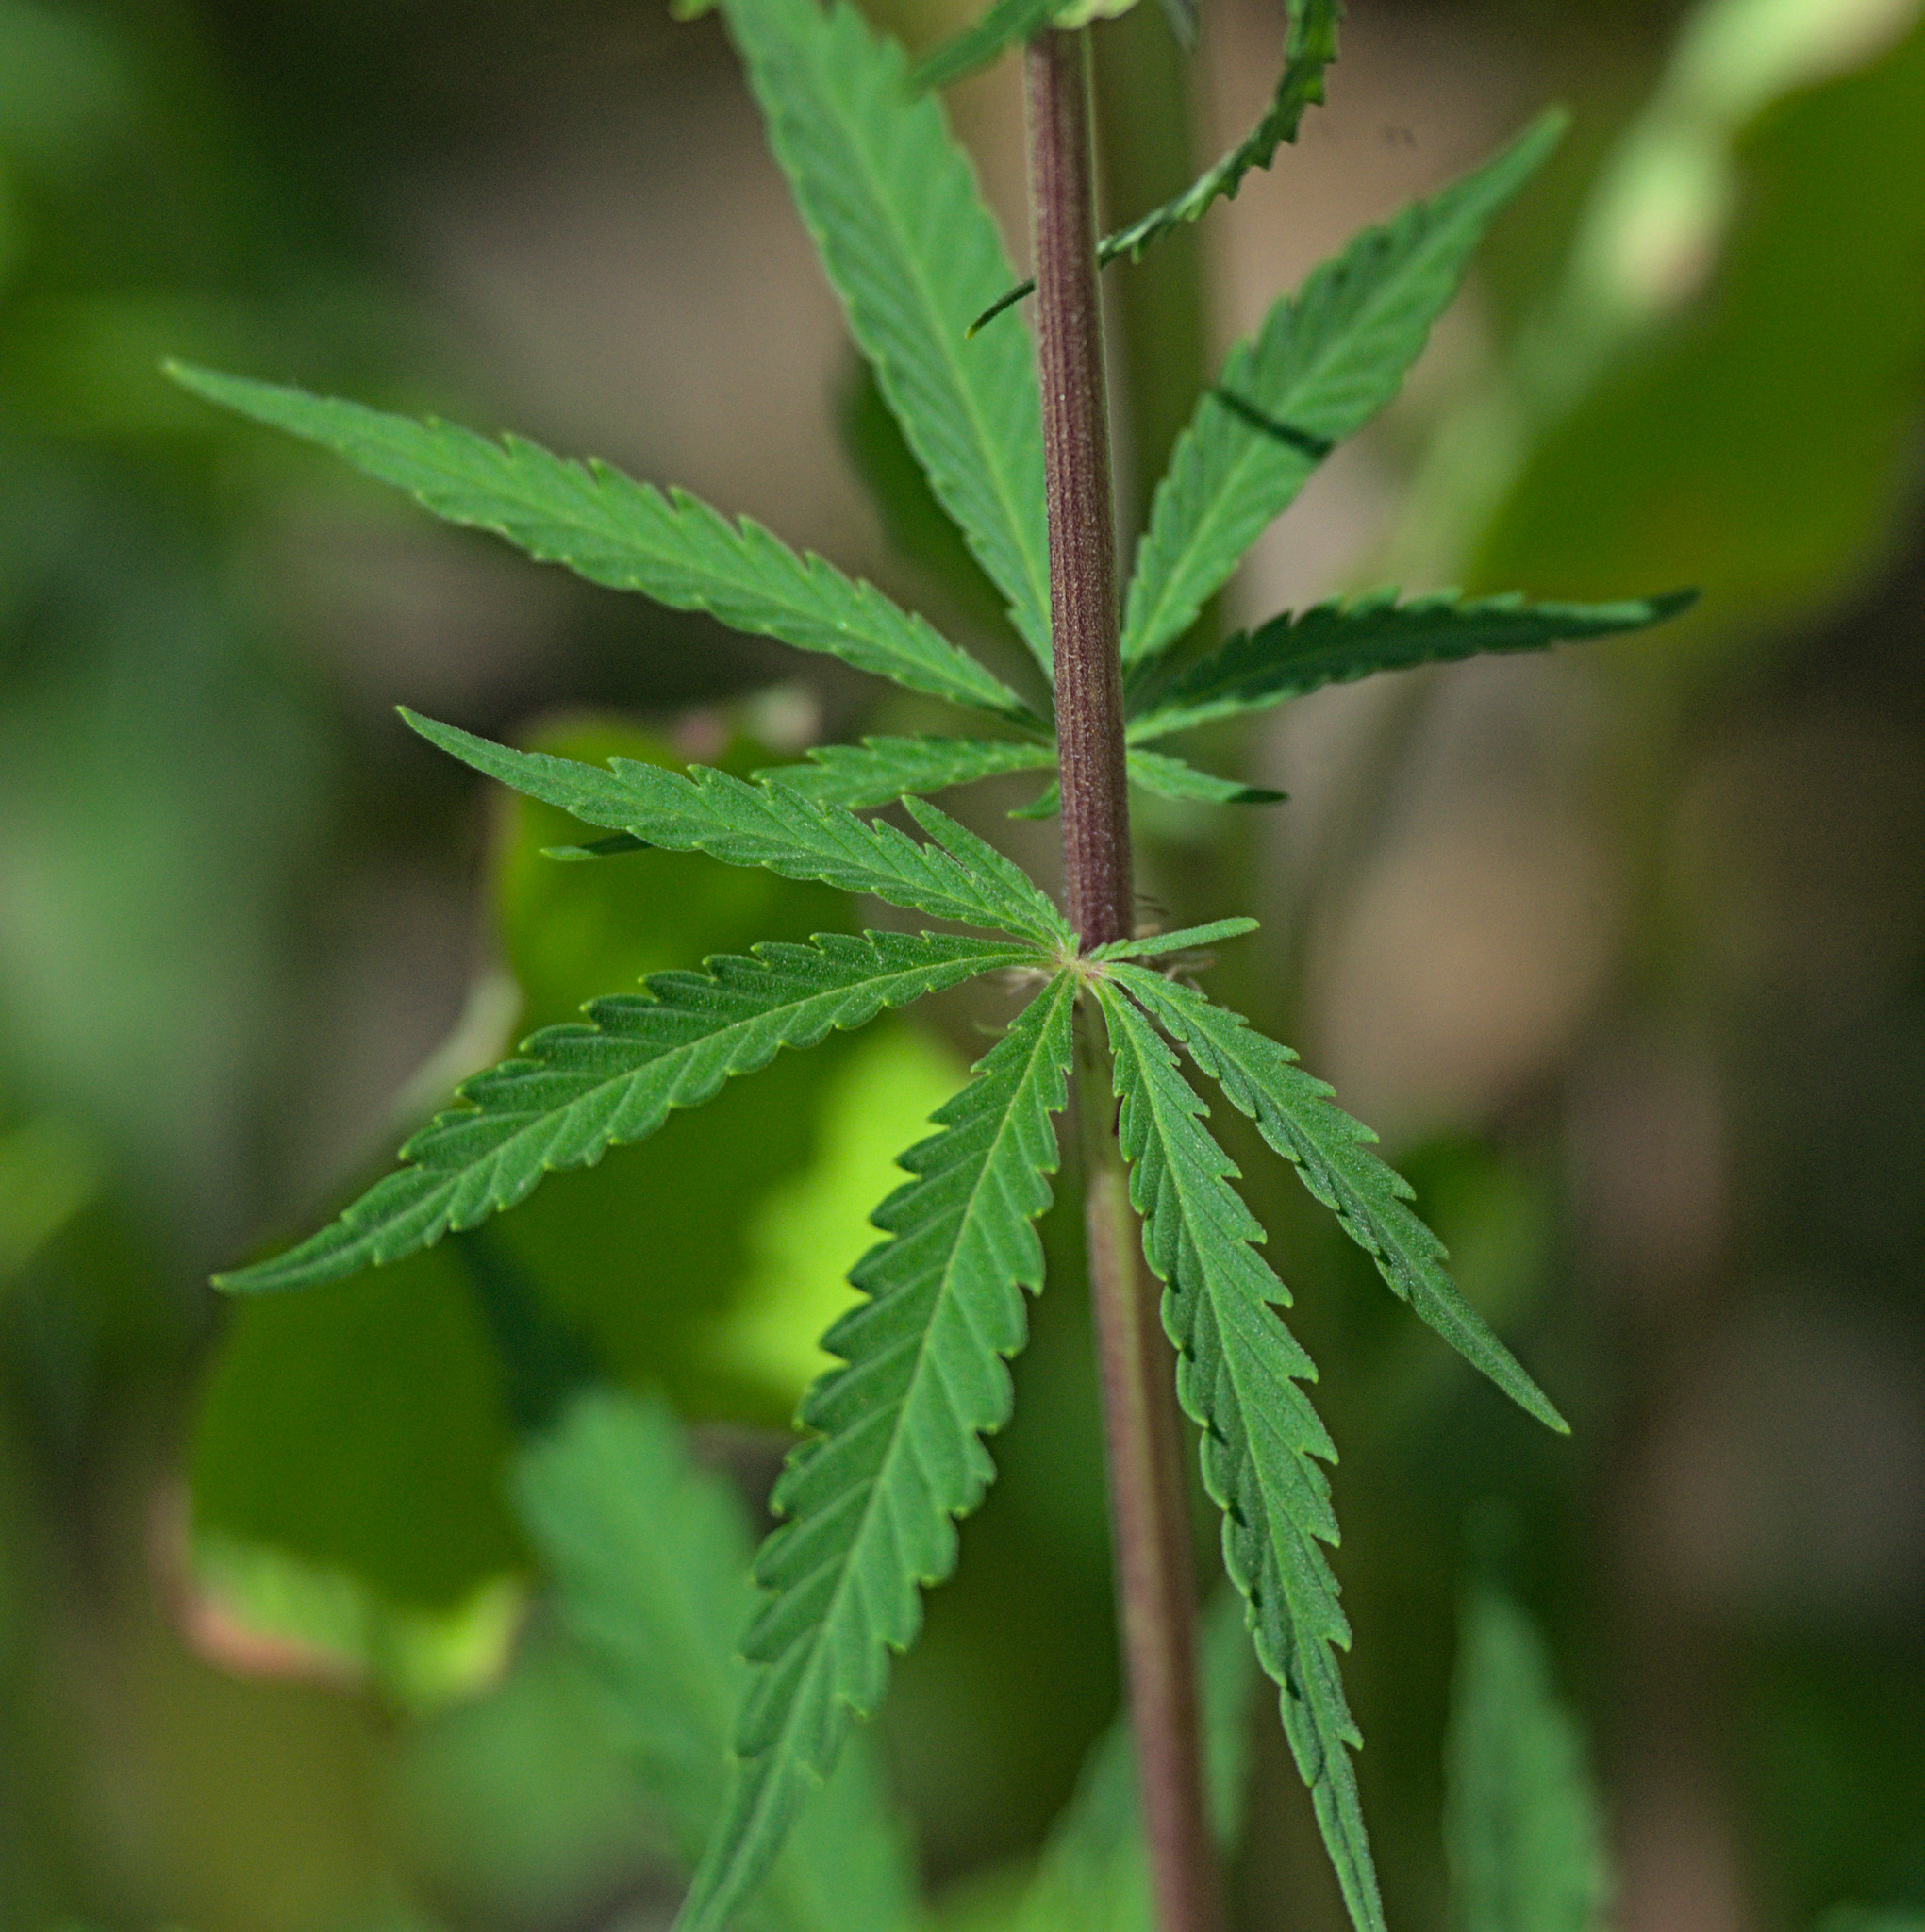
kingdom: Plantae
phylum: Tracheophyta
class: Magnoliopsida
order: Rosales
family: Cannabaceae
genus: Cannabis
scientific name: Cannabis sativa
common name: Hemp
